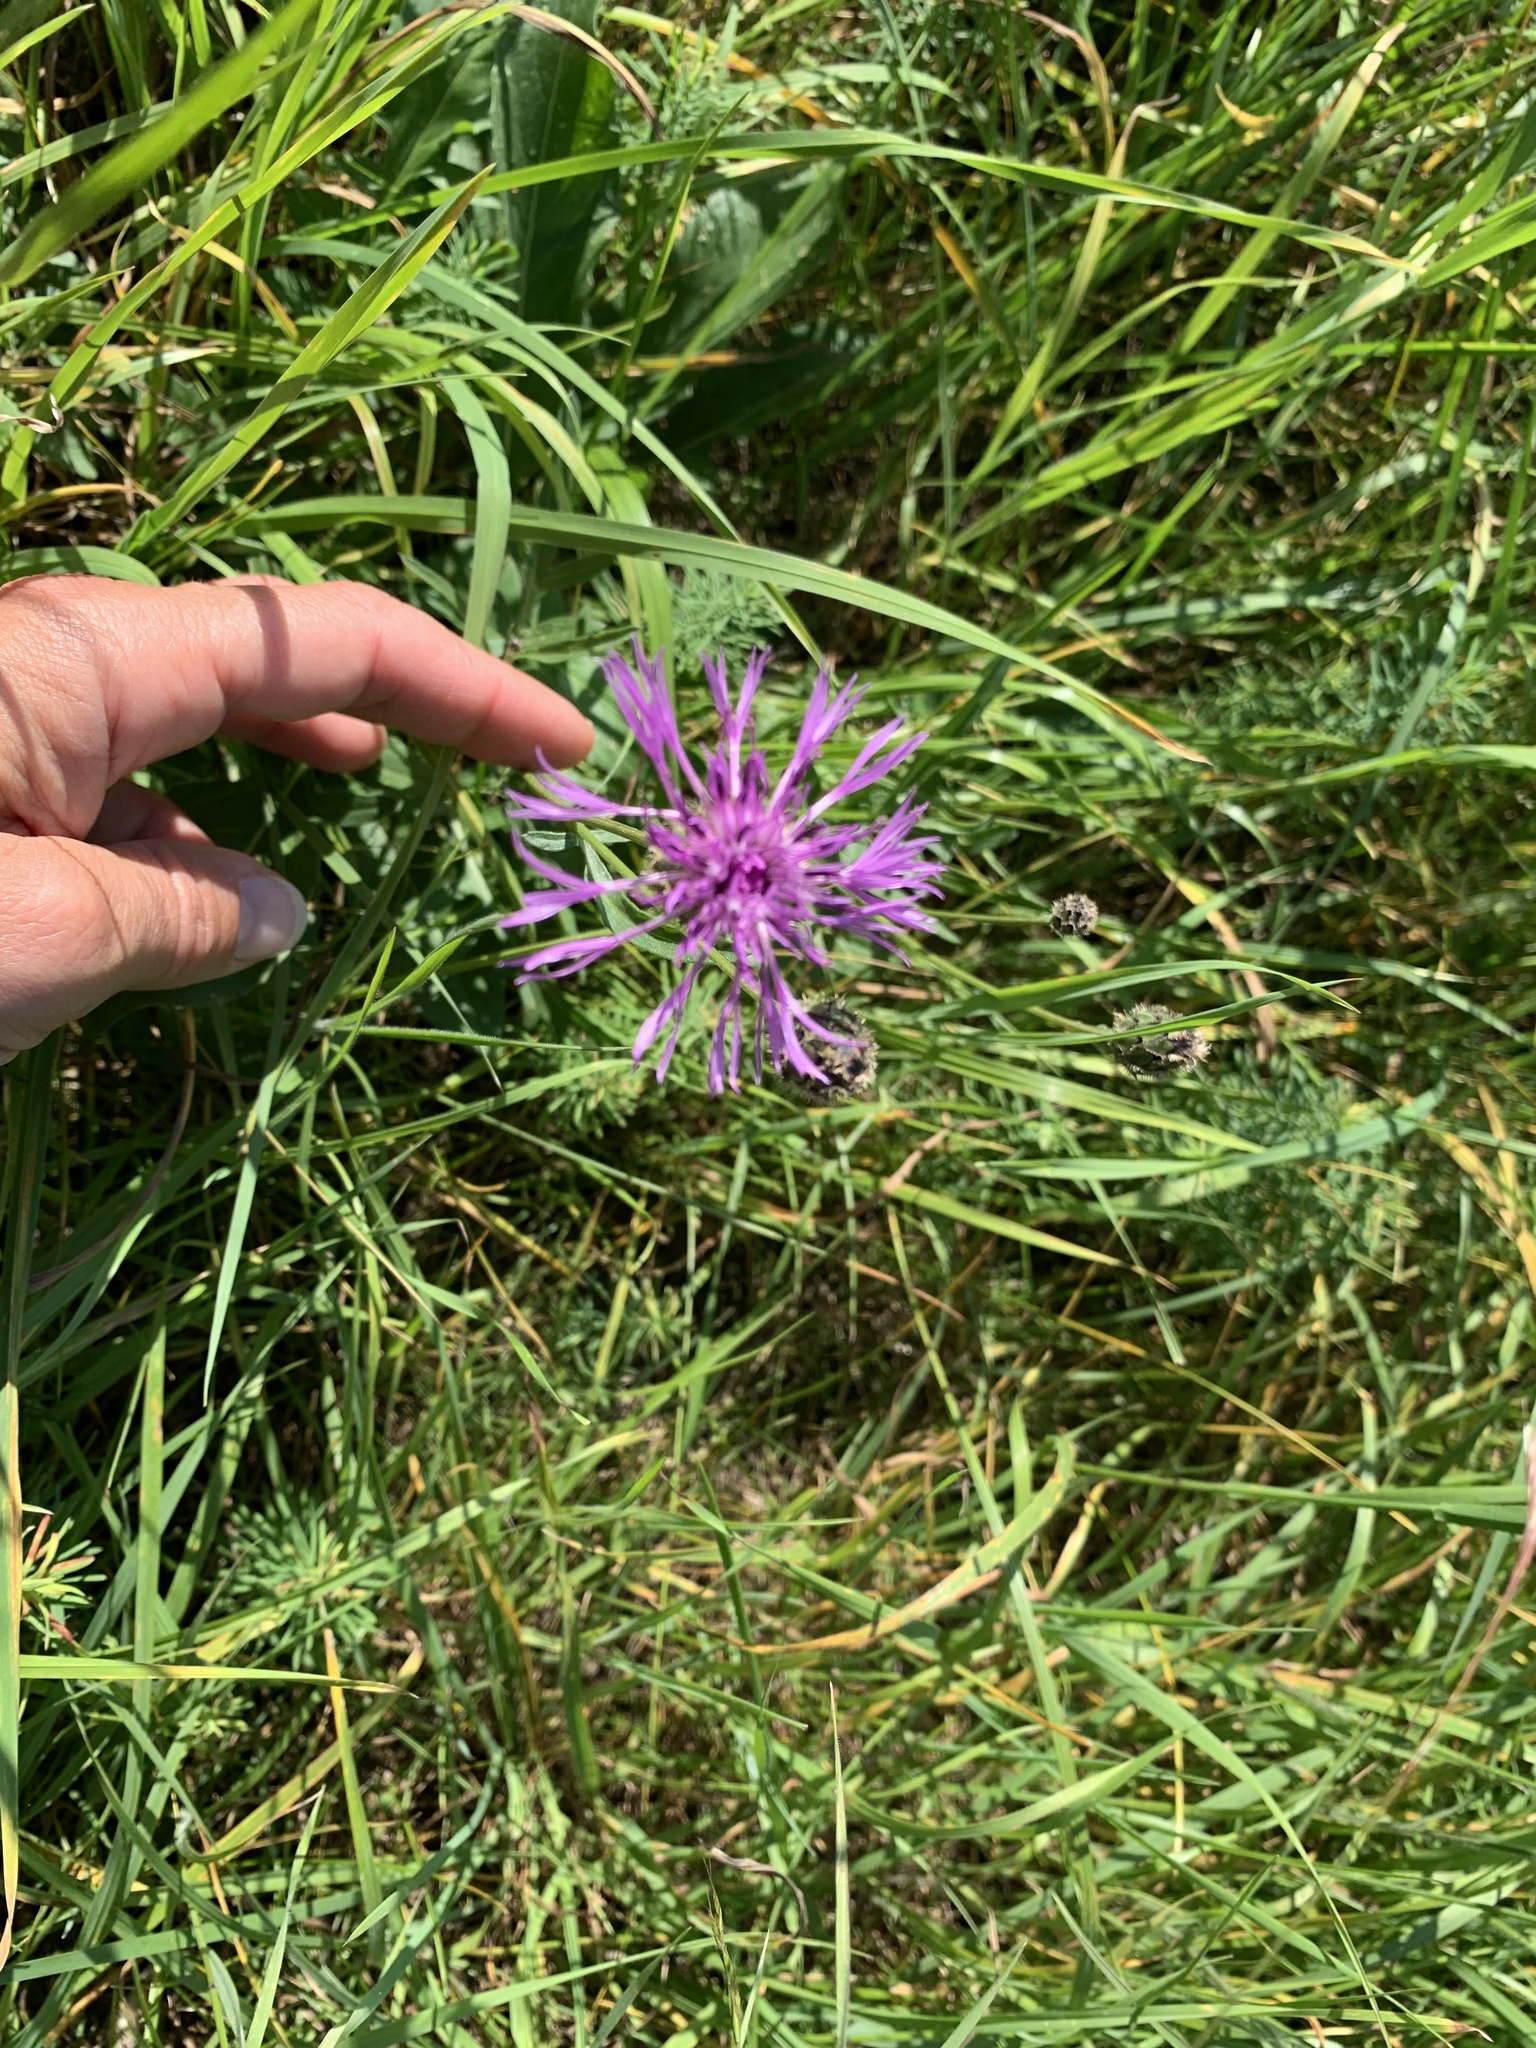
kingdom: Plantae
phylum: Tracheophyta
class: Magnoliopsida
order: Asterales
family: Asteraceae
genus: Centaurea
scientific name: Centaurea scabiosa
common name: Greater knapweed
